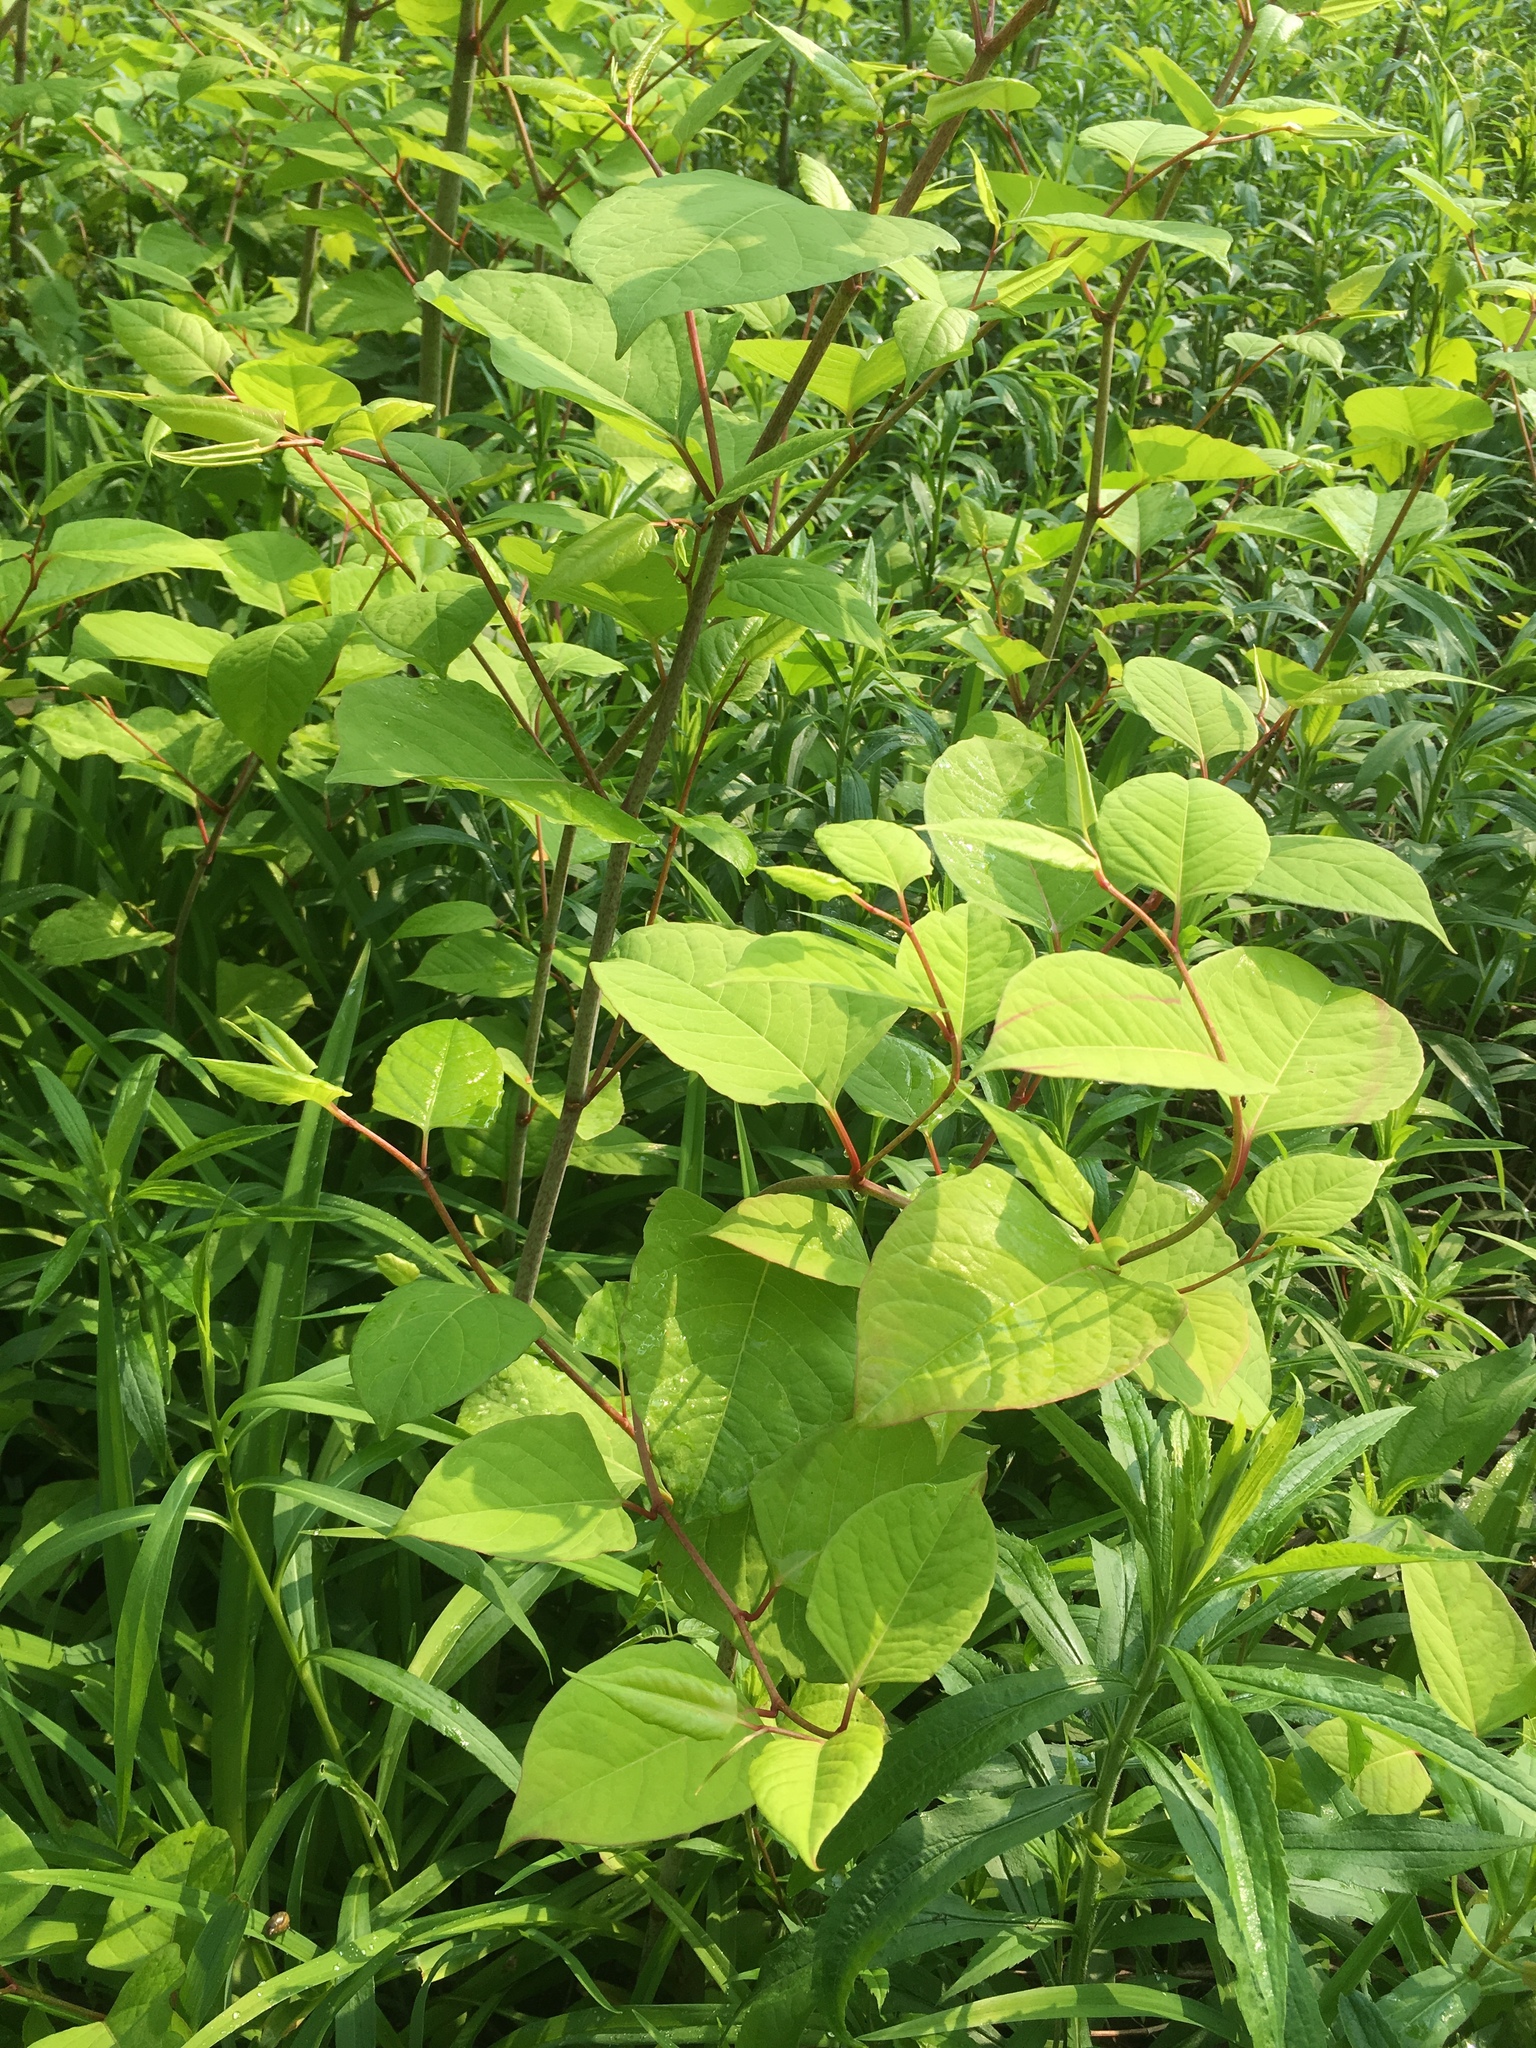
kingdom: Plantae
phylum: Tracheophyta
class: Magnoliopsida
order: Caryophyllales
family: Polygonaceae
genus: Reynoutria
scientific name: Reynoutria japonica
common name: Japanese knotweed
